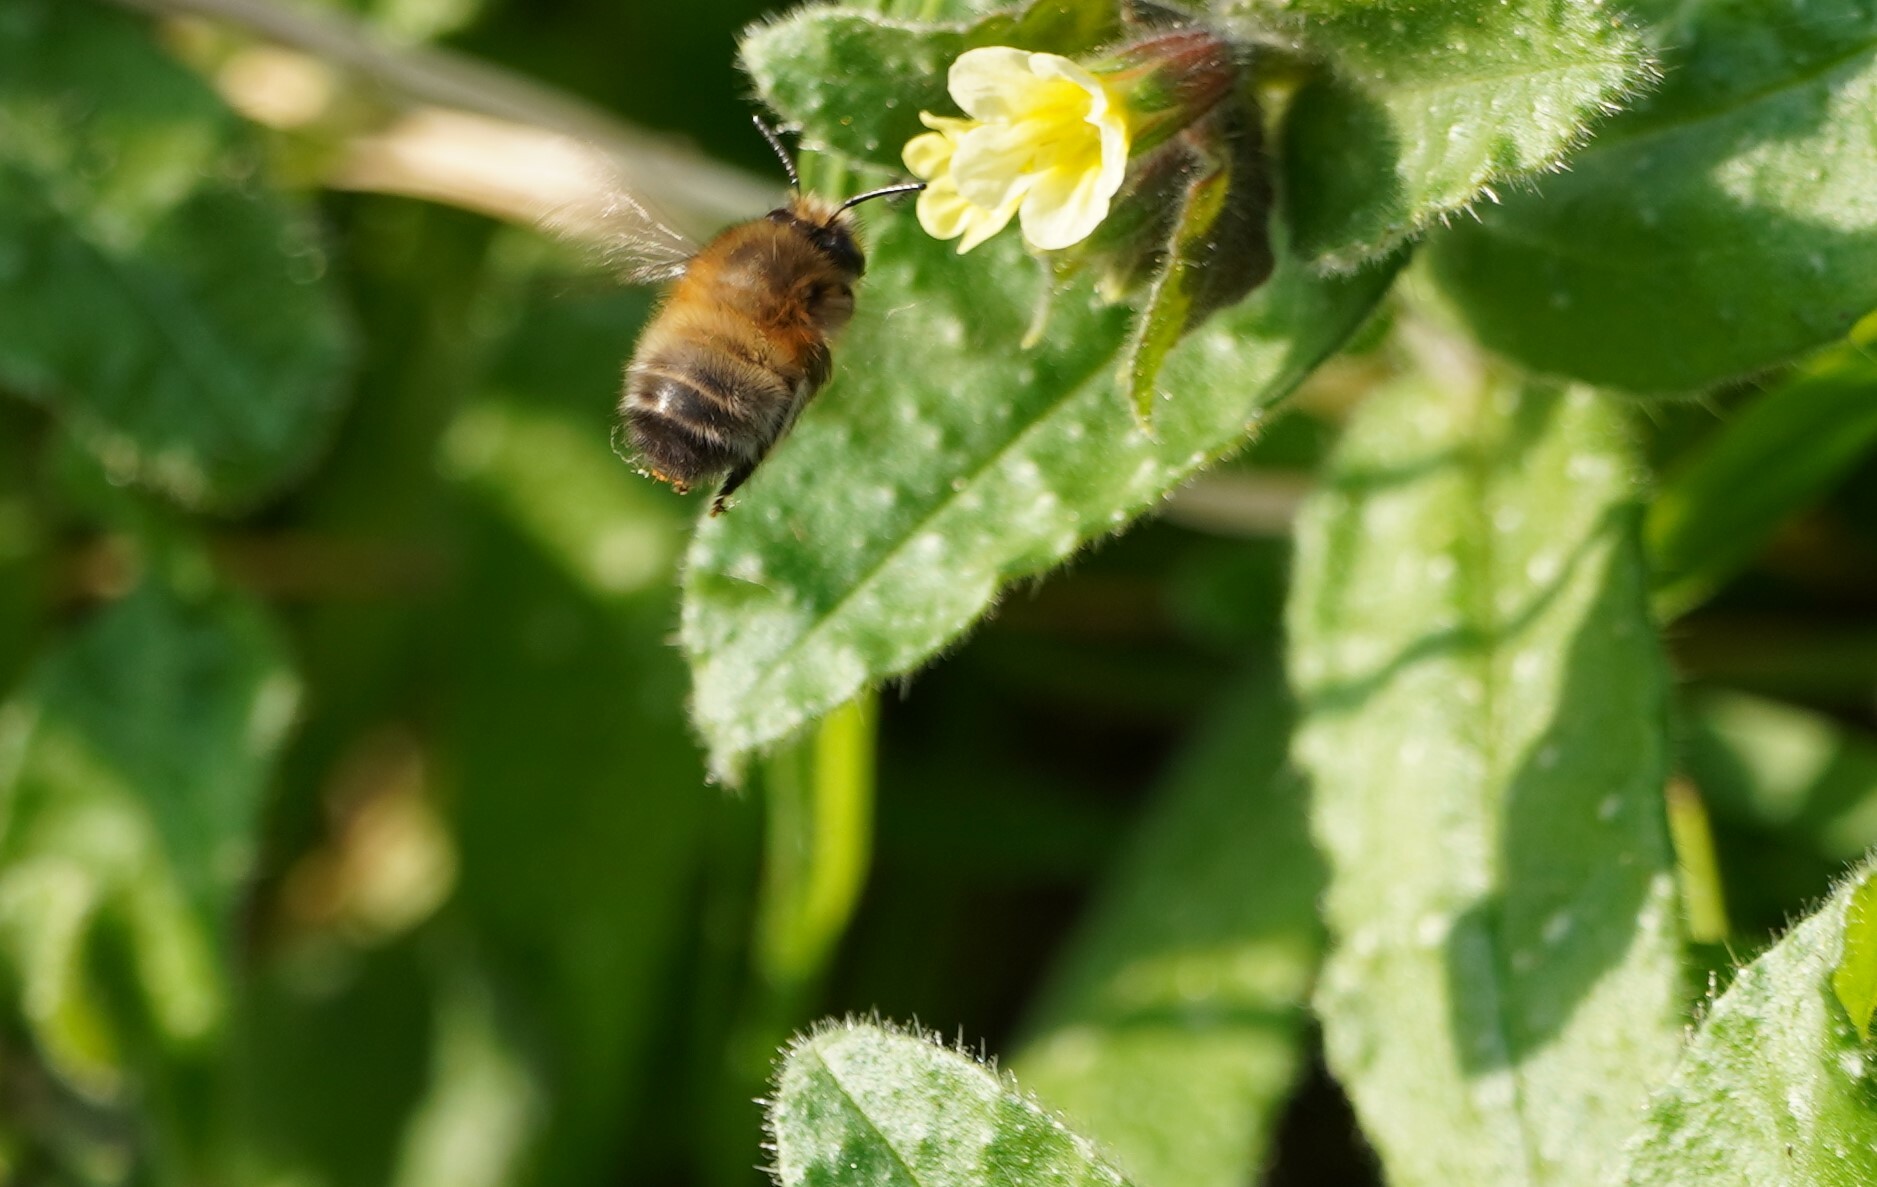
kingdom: Animalia
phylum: Arthropoda
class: Insecta
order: Hymenoptera
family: Apidae
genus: Anthophora
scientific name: Anthophora plumipes
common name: Hairy-footed flower bee
